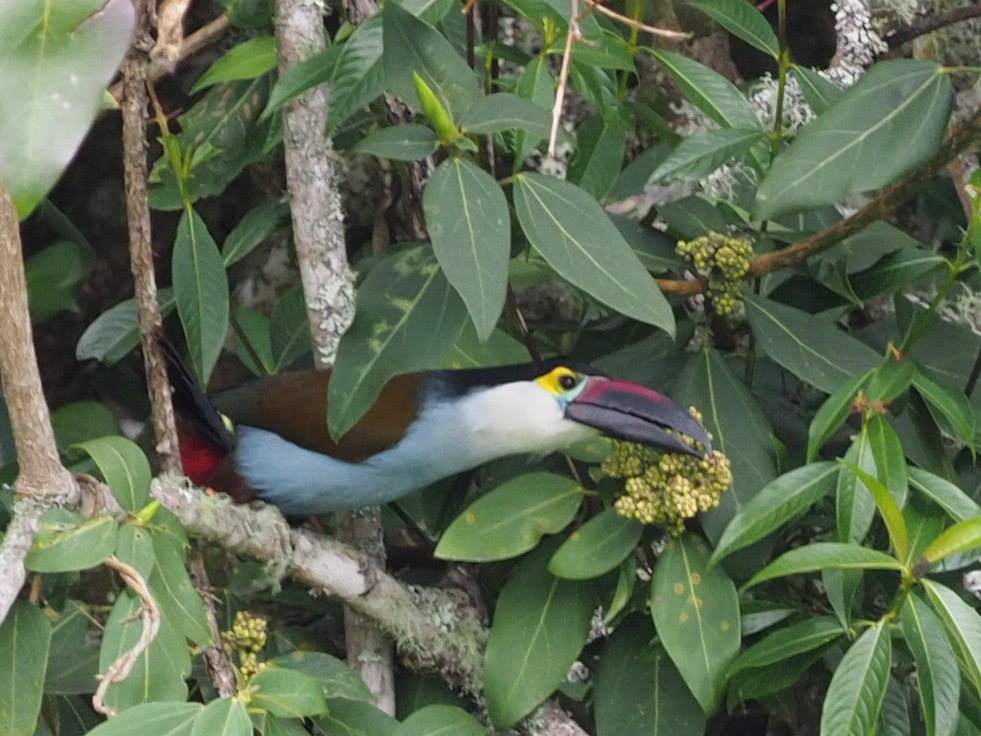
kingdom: Animalia
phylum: Chordata
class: Aves
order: Piciformes
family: Ramphastidae
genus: Andigena
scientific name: Andigena nigrirostris
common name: Black-billed mountain toucan
